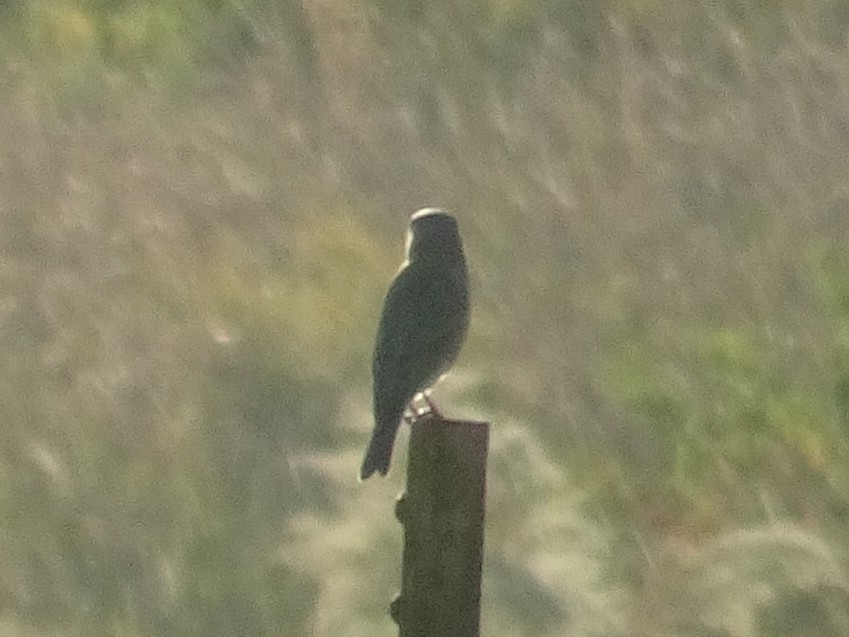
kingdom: Animalia
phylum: Chordata
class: Aves
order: Passeriformes
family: Turdidae
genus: Sialia
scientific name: Sialia sialis
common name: Eastern bluebird
